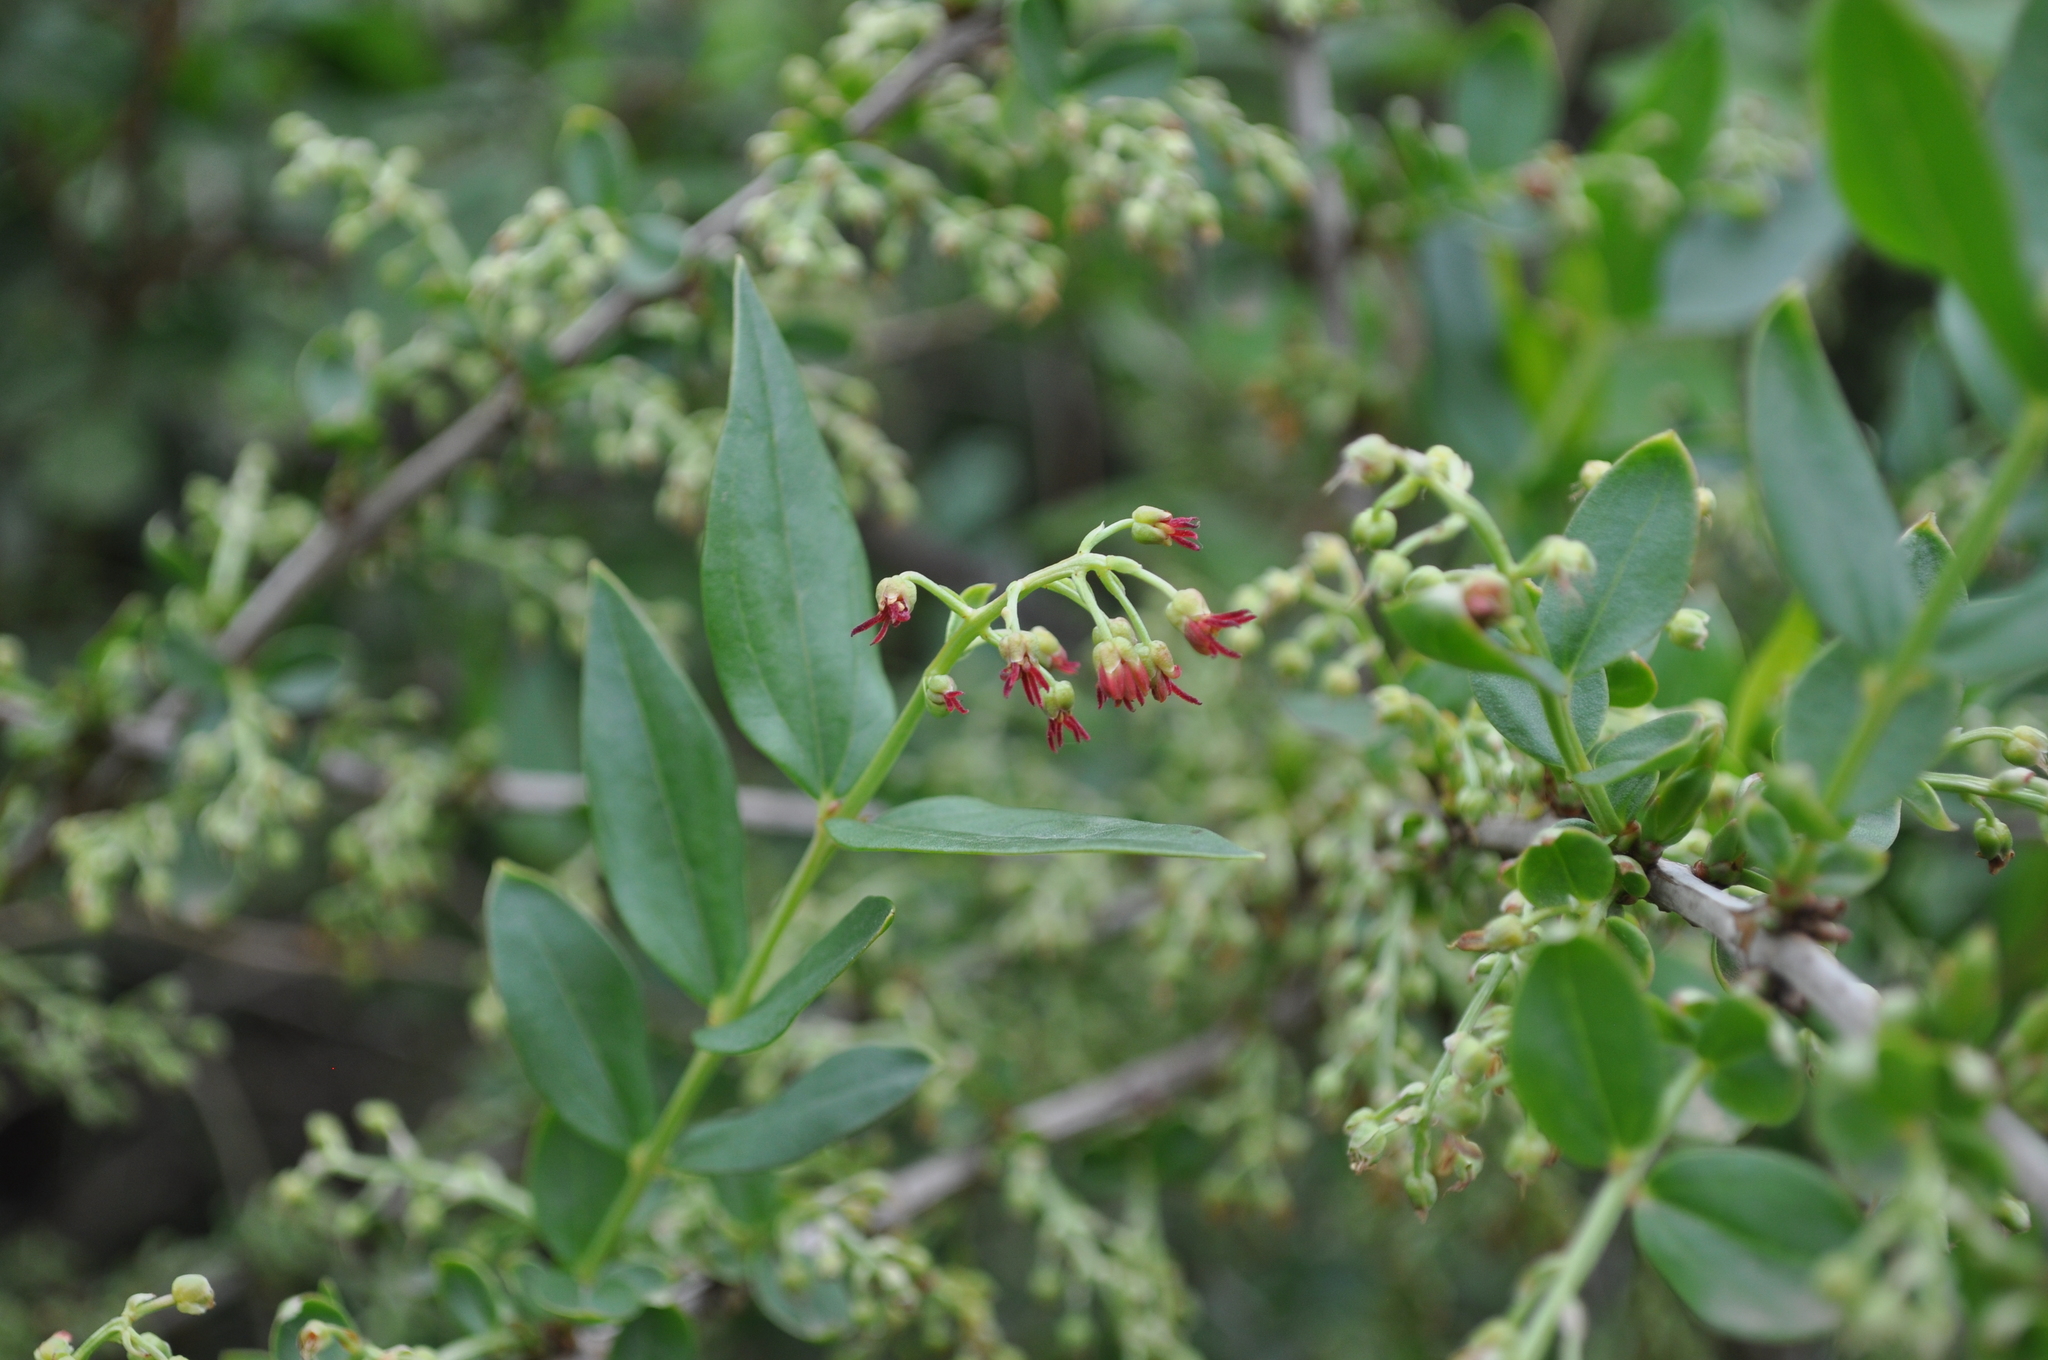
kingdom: Plantae
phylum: Tracheophyta
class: Magnoliopsida
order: Cucurbitales
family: Coriariaceae
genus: Coriaria
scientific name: Coriaria myrtifolia
